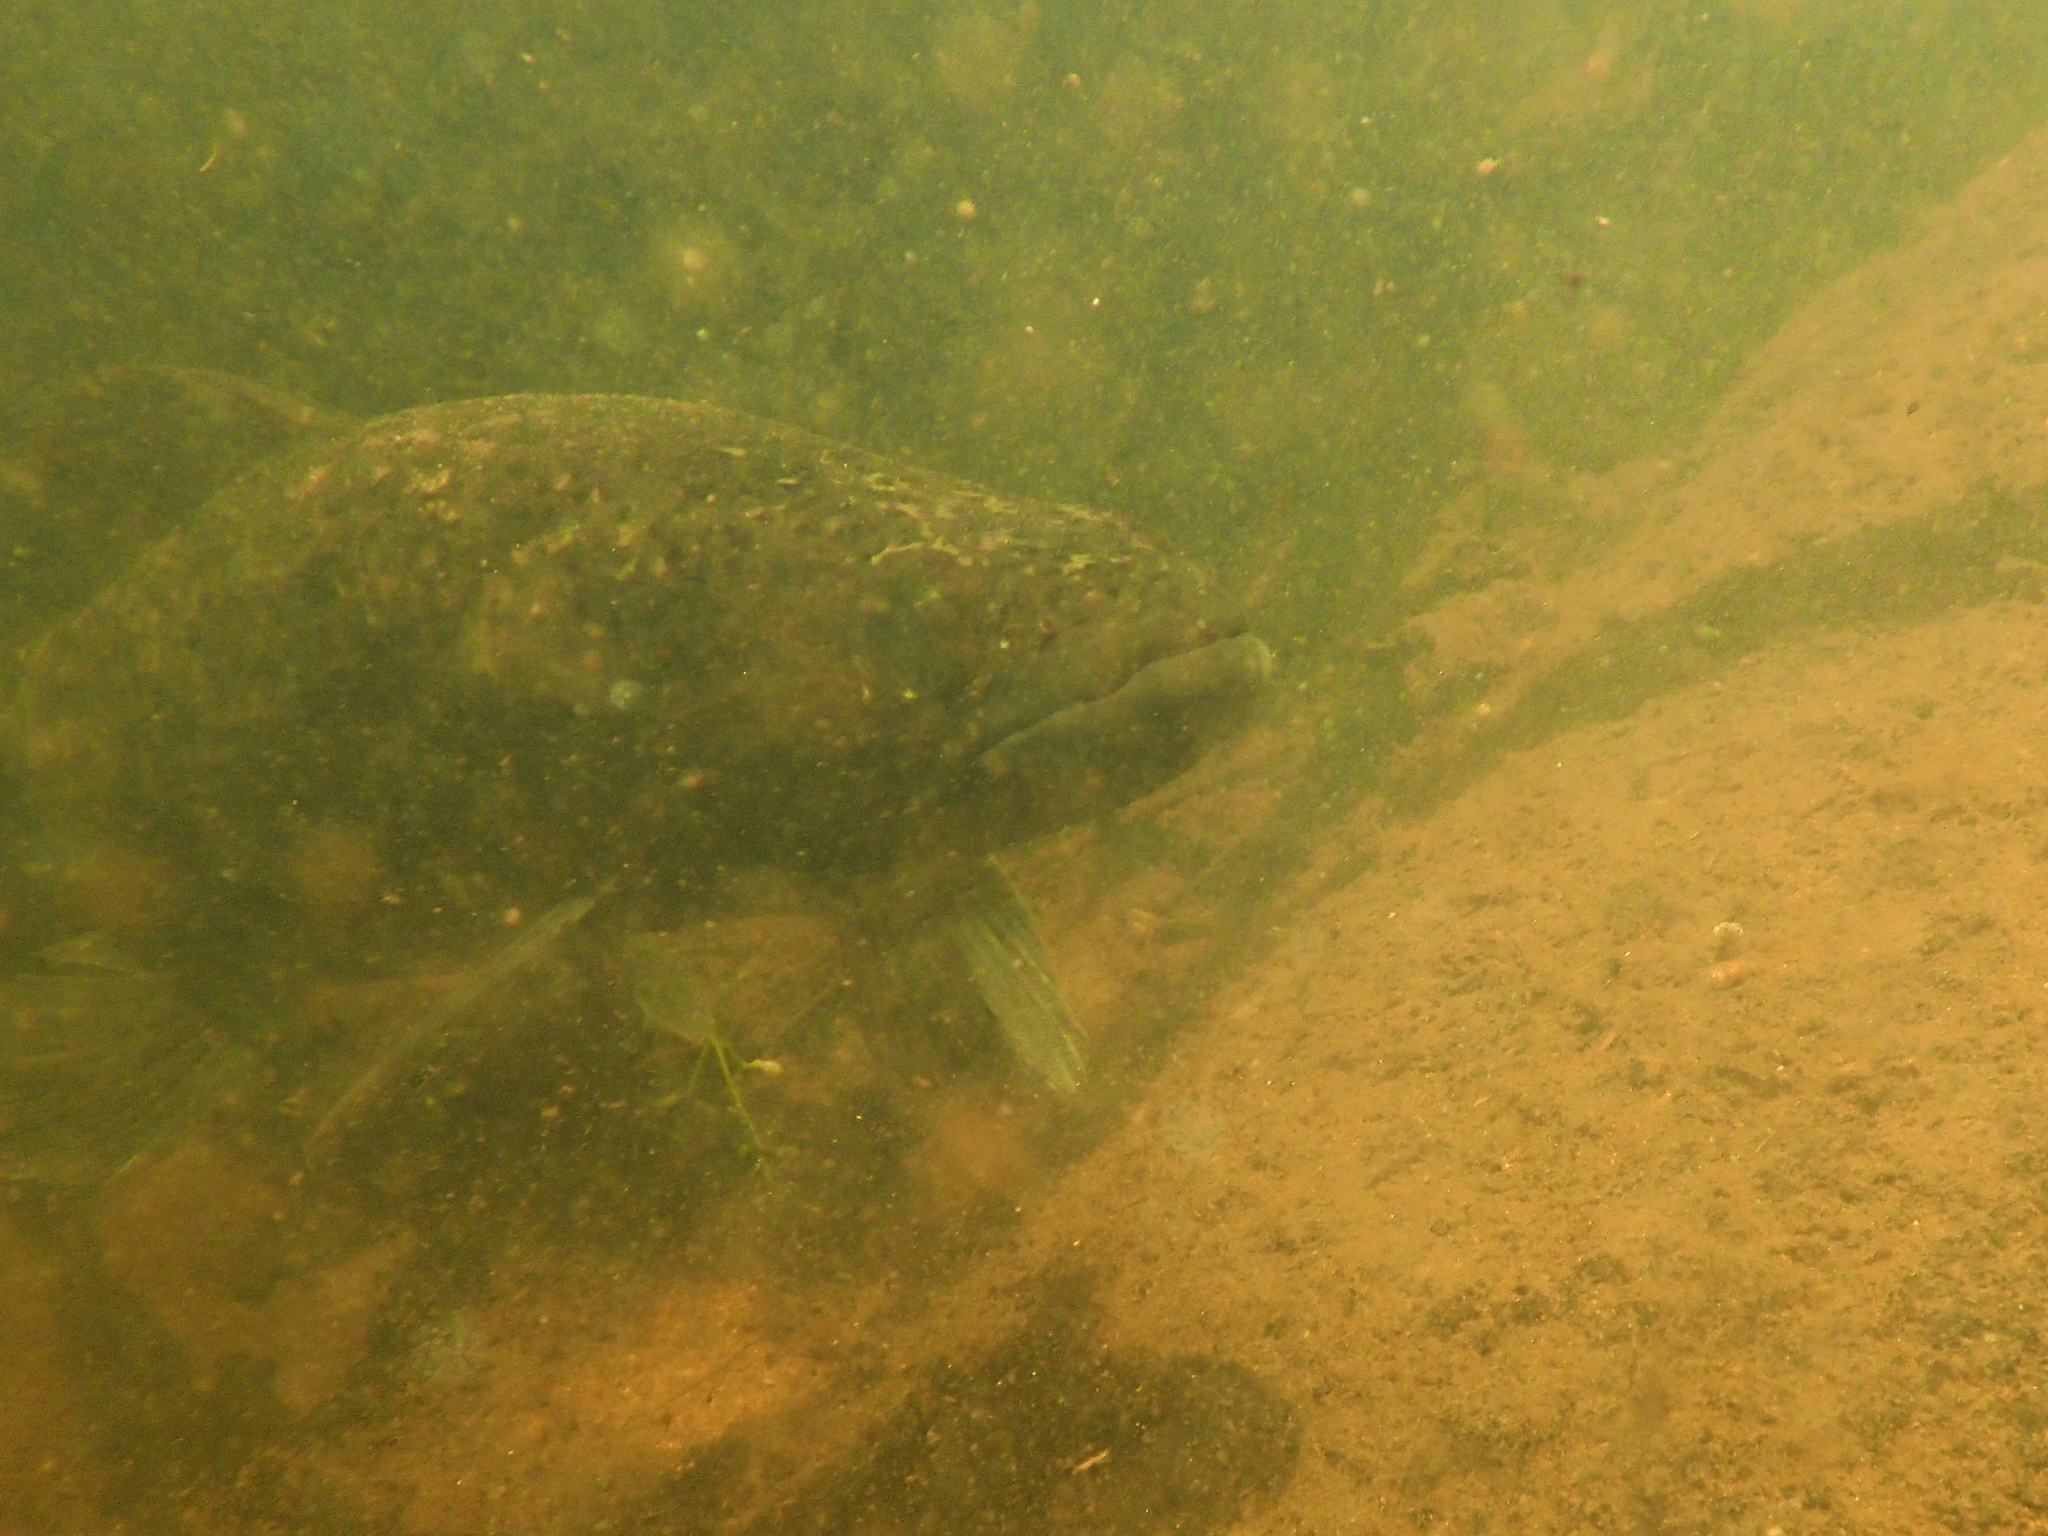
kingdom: Animalia
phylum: Chordata
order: Characiformes
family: Erythrinidae
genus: Hoplias
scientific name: Hoplias curupira
